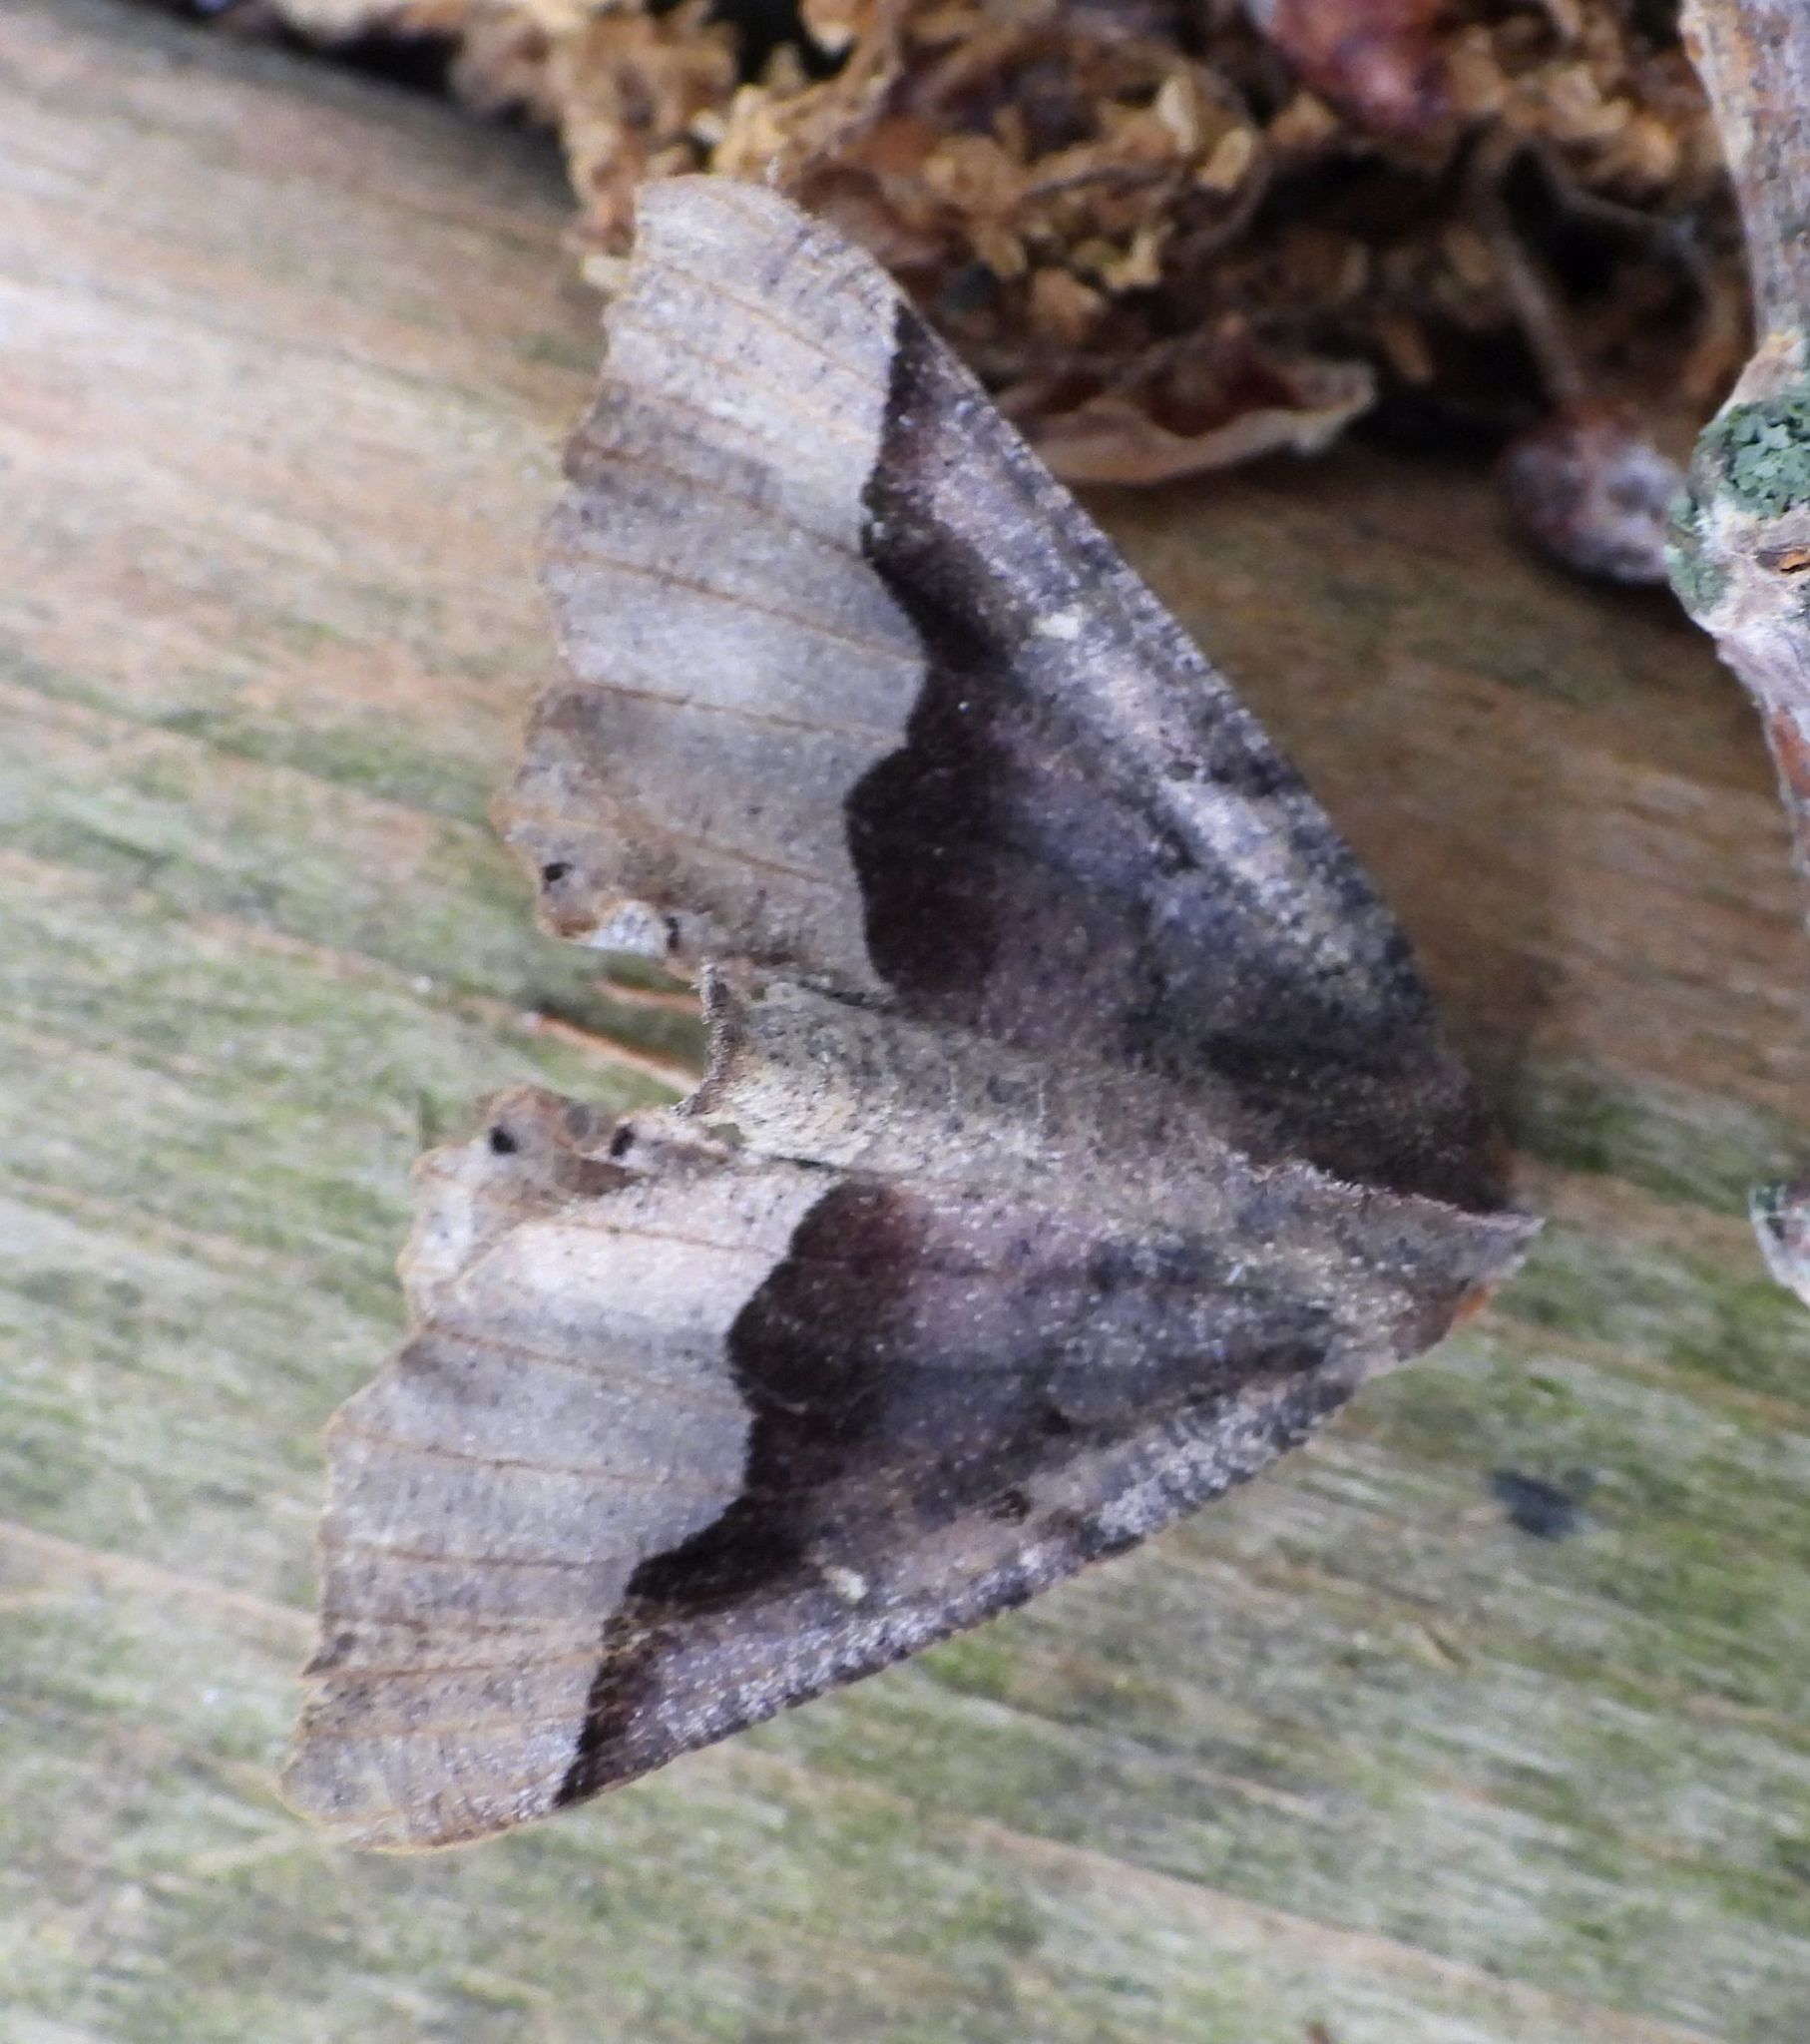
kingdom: Animalia
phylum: Arthropoda
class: Insecta
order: Lepidoptera
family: Geometridae
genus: Pero
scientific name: Pero honestaria
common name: Honest pero
